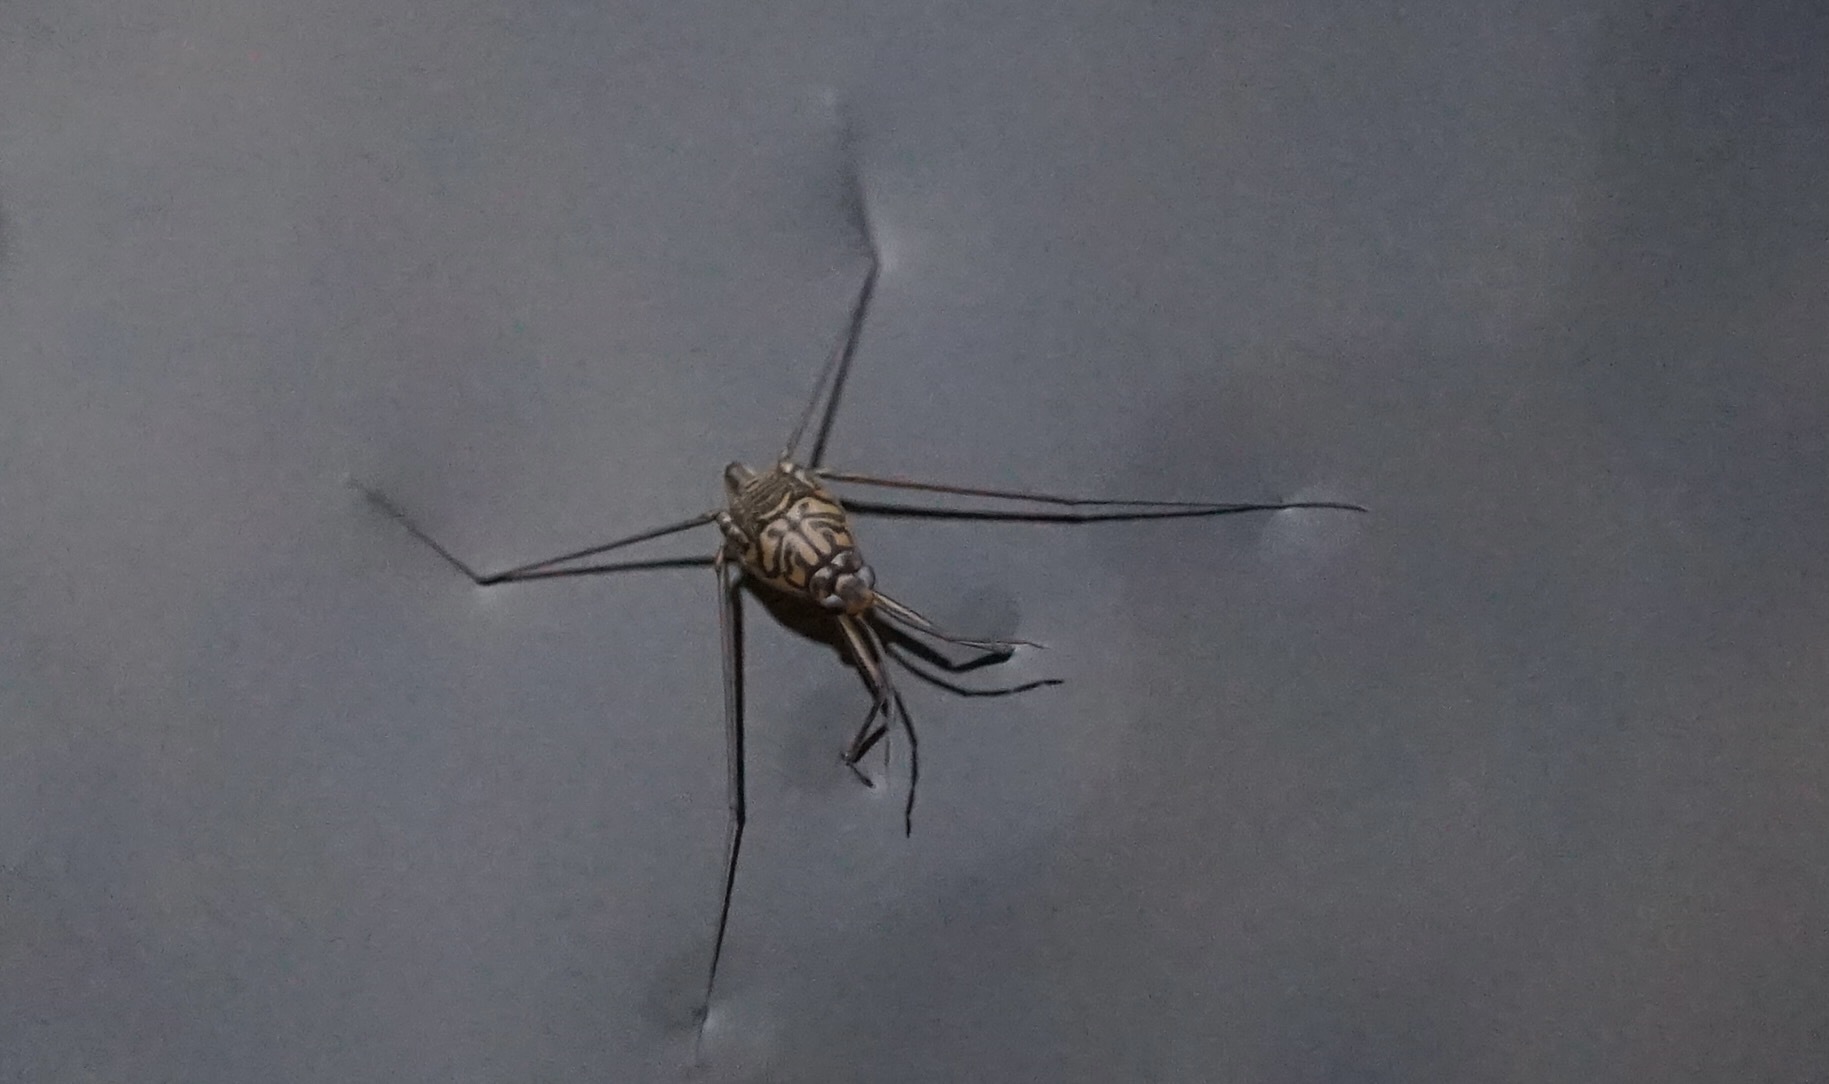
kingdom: Animalia
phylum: Arthropoda
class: Insecta
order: Hemiptera
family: Gerridae
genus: Metrocoris
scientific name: Metrocoris histrio
